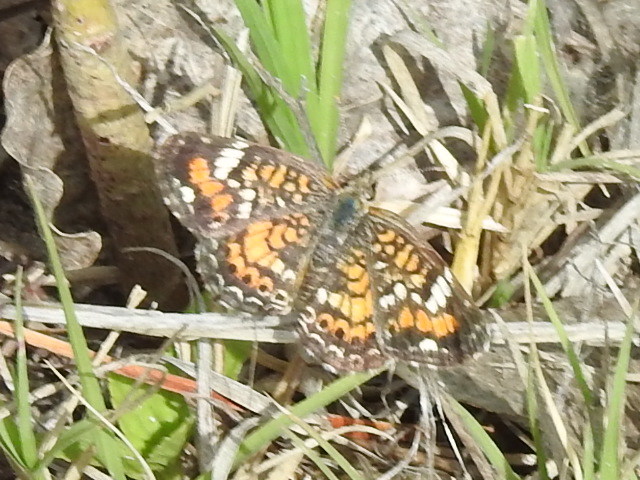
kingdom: Animalia
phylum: Arthropoda
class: Insecta
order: Lepidoptera
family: Nymphalidae
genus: Phyciodes
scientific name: Phyciodes phaon
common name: Phaon crescent
